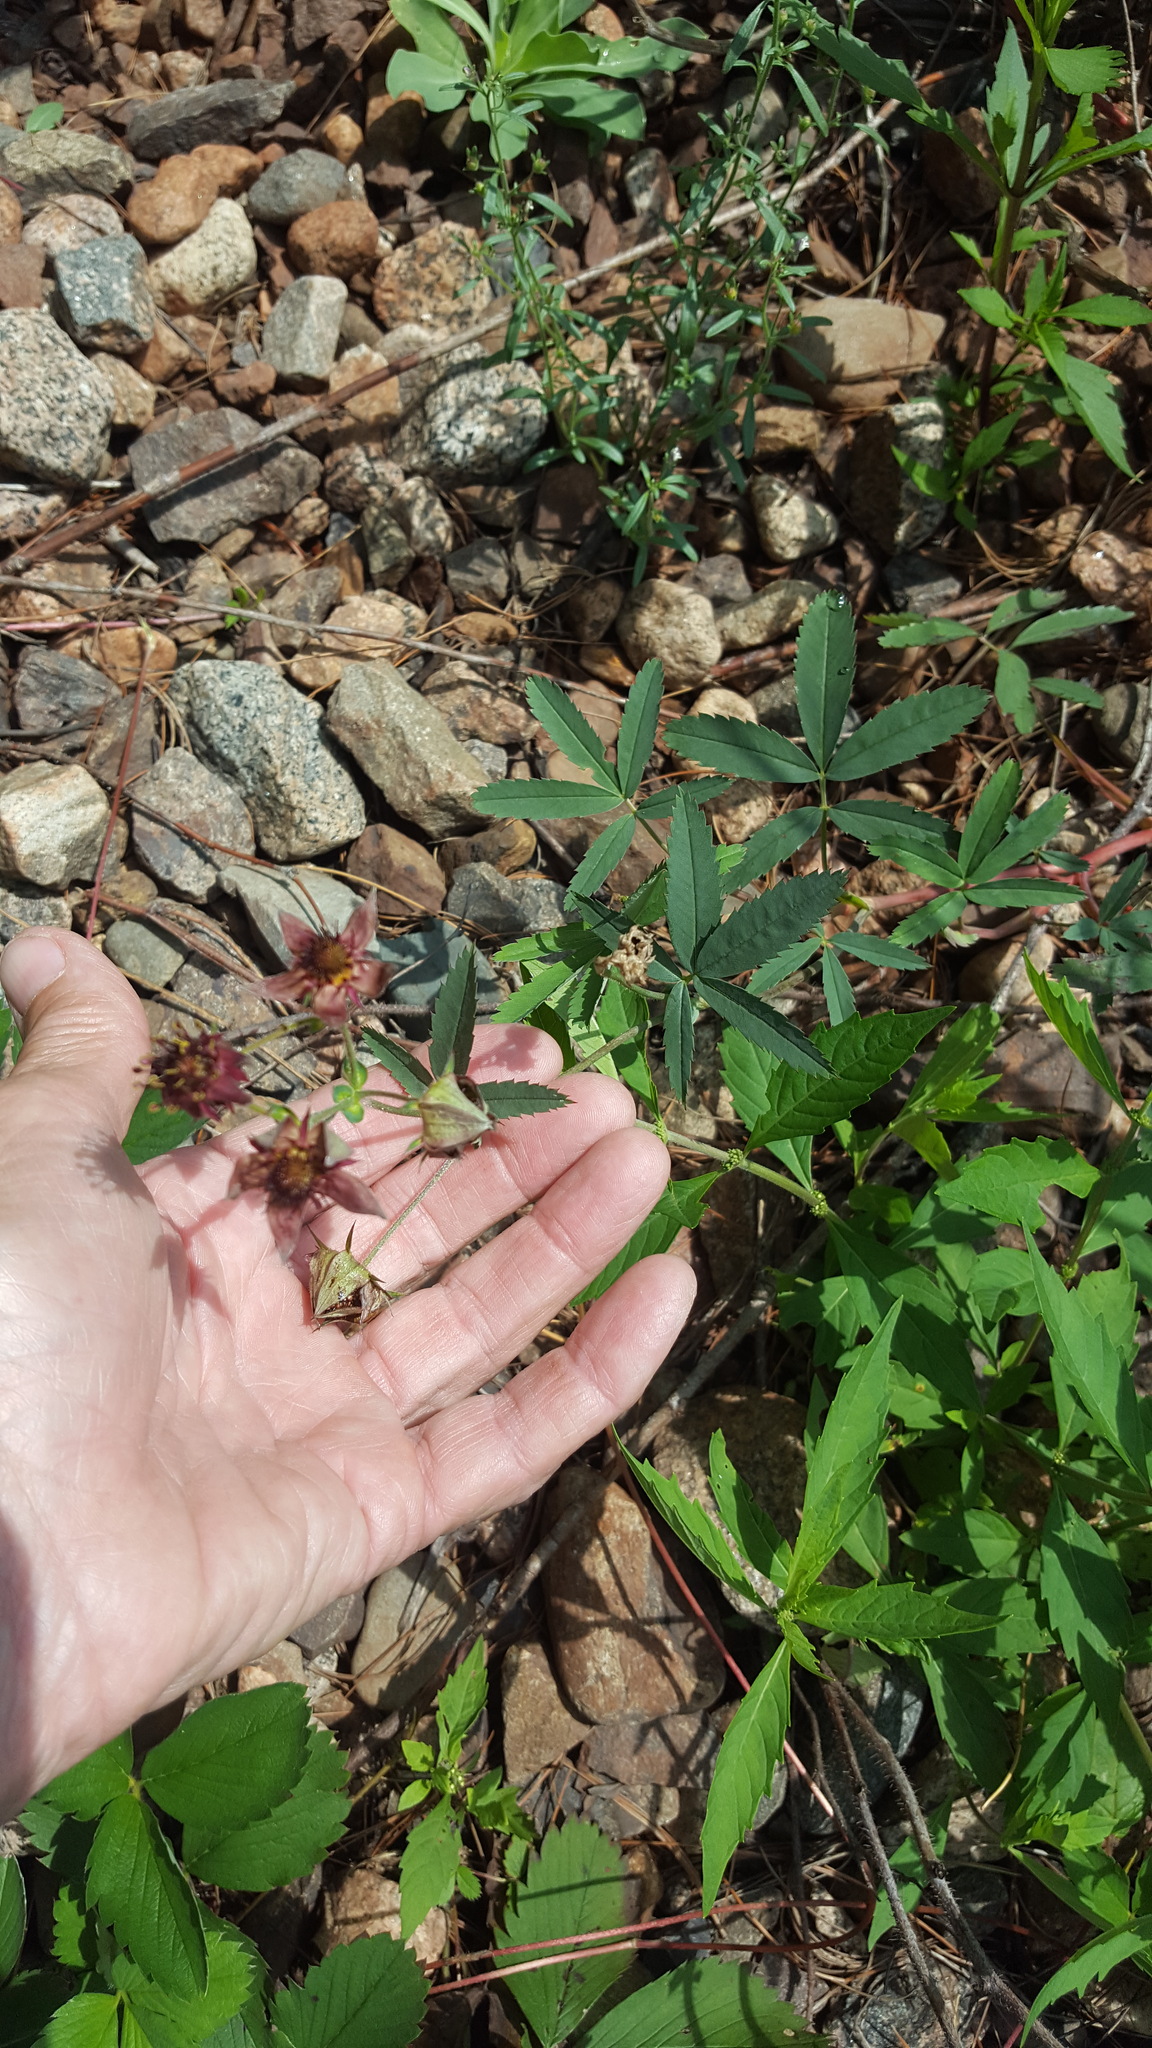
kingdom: Plantae
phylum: Tracheophyta
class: Magnoliopsida
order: Rosales
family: Rosaceae
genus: Comarum
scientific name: Comarum palustre
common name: Marsh cinquefoil
